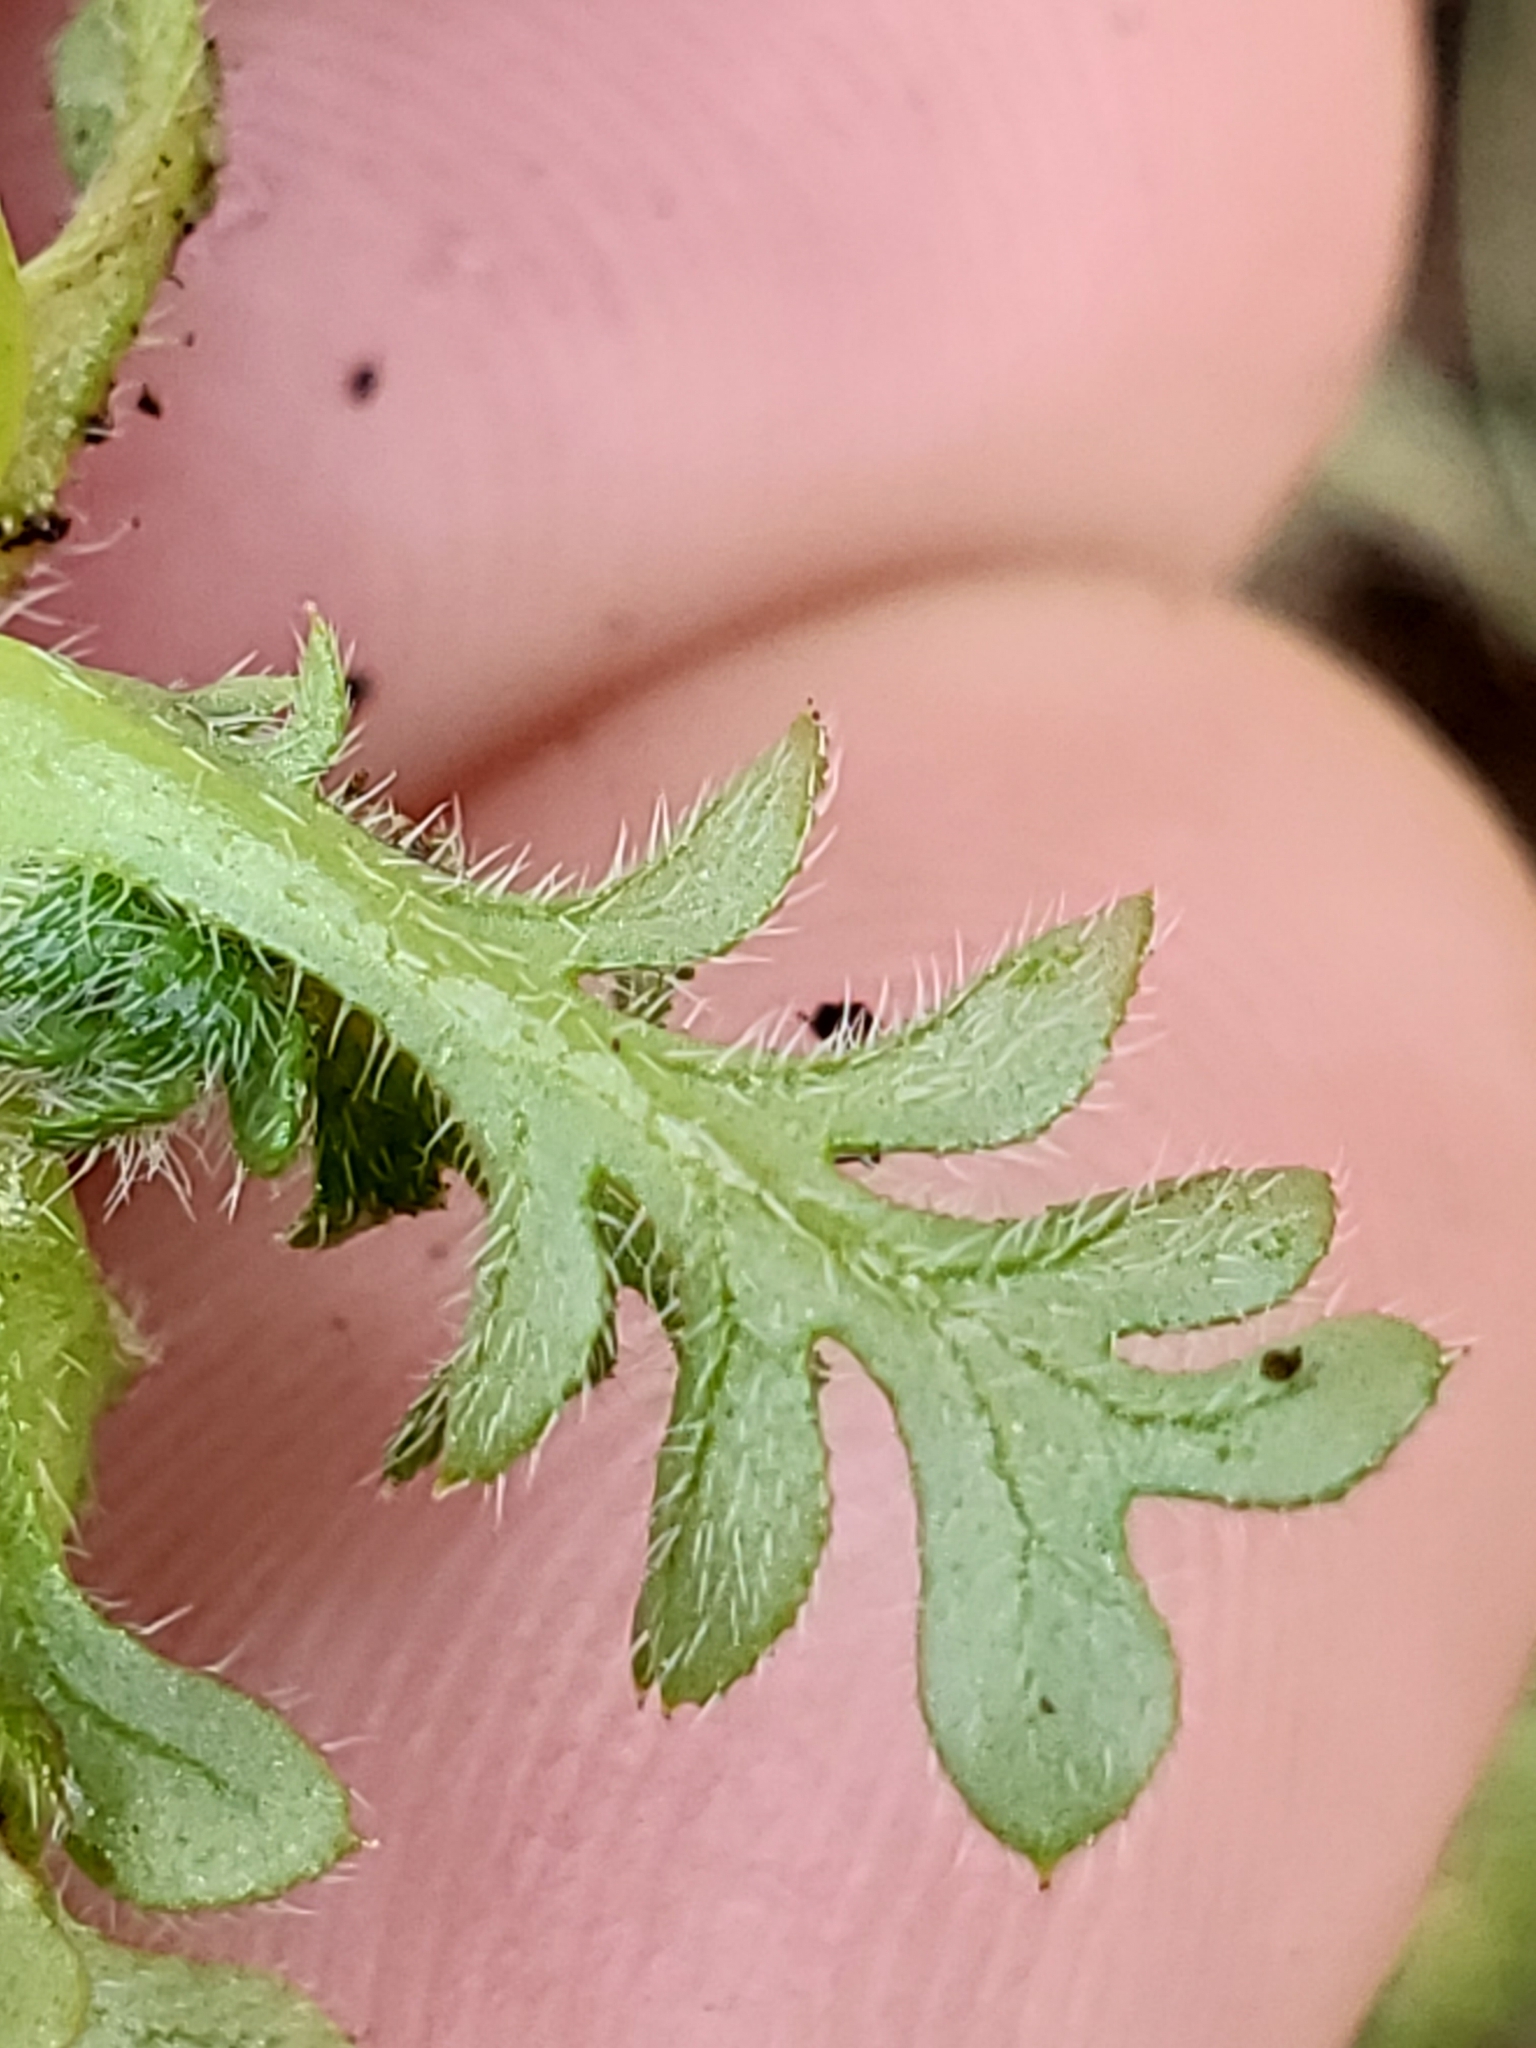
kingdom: Plantae
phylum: Tracheophyta
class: Magnoliopsida
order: Boraginales
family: Hydrophyllaceae
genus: Nemophila
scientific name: Nemophila pedunculata
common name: Little-foot baby-blue-eyes
